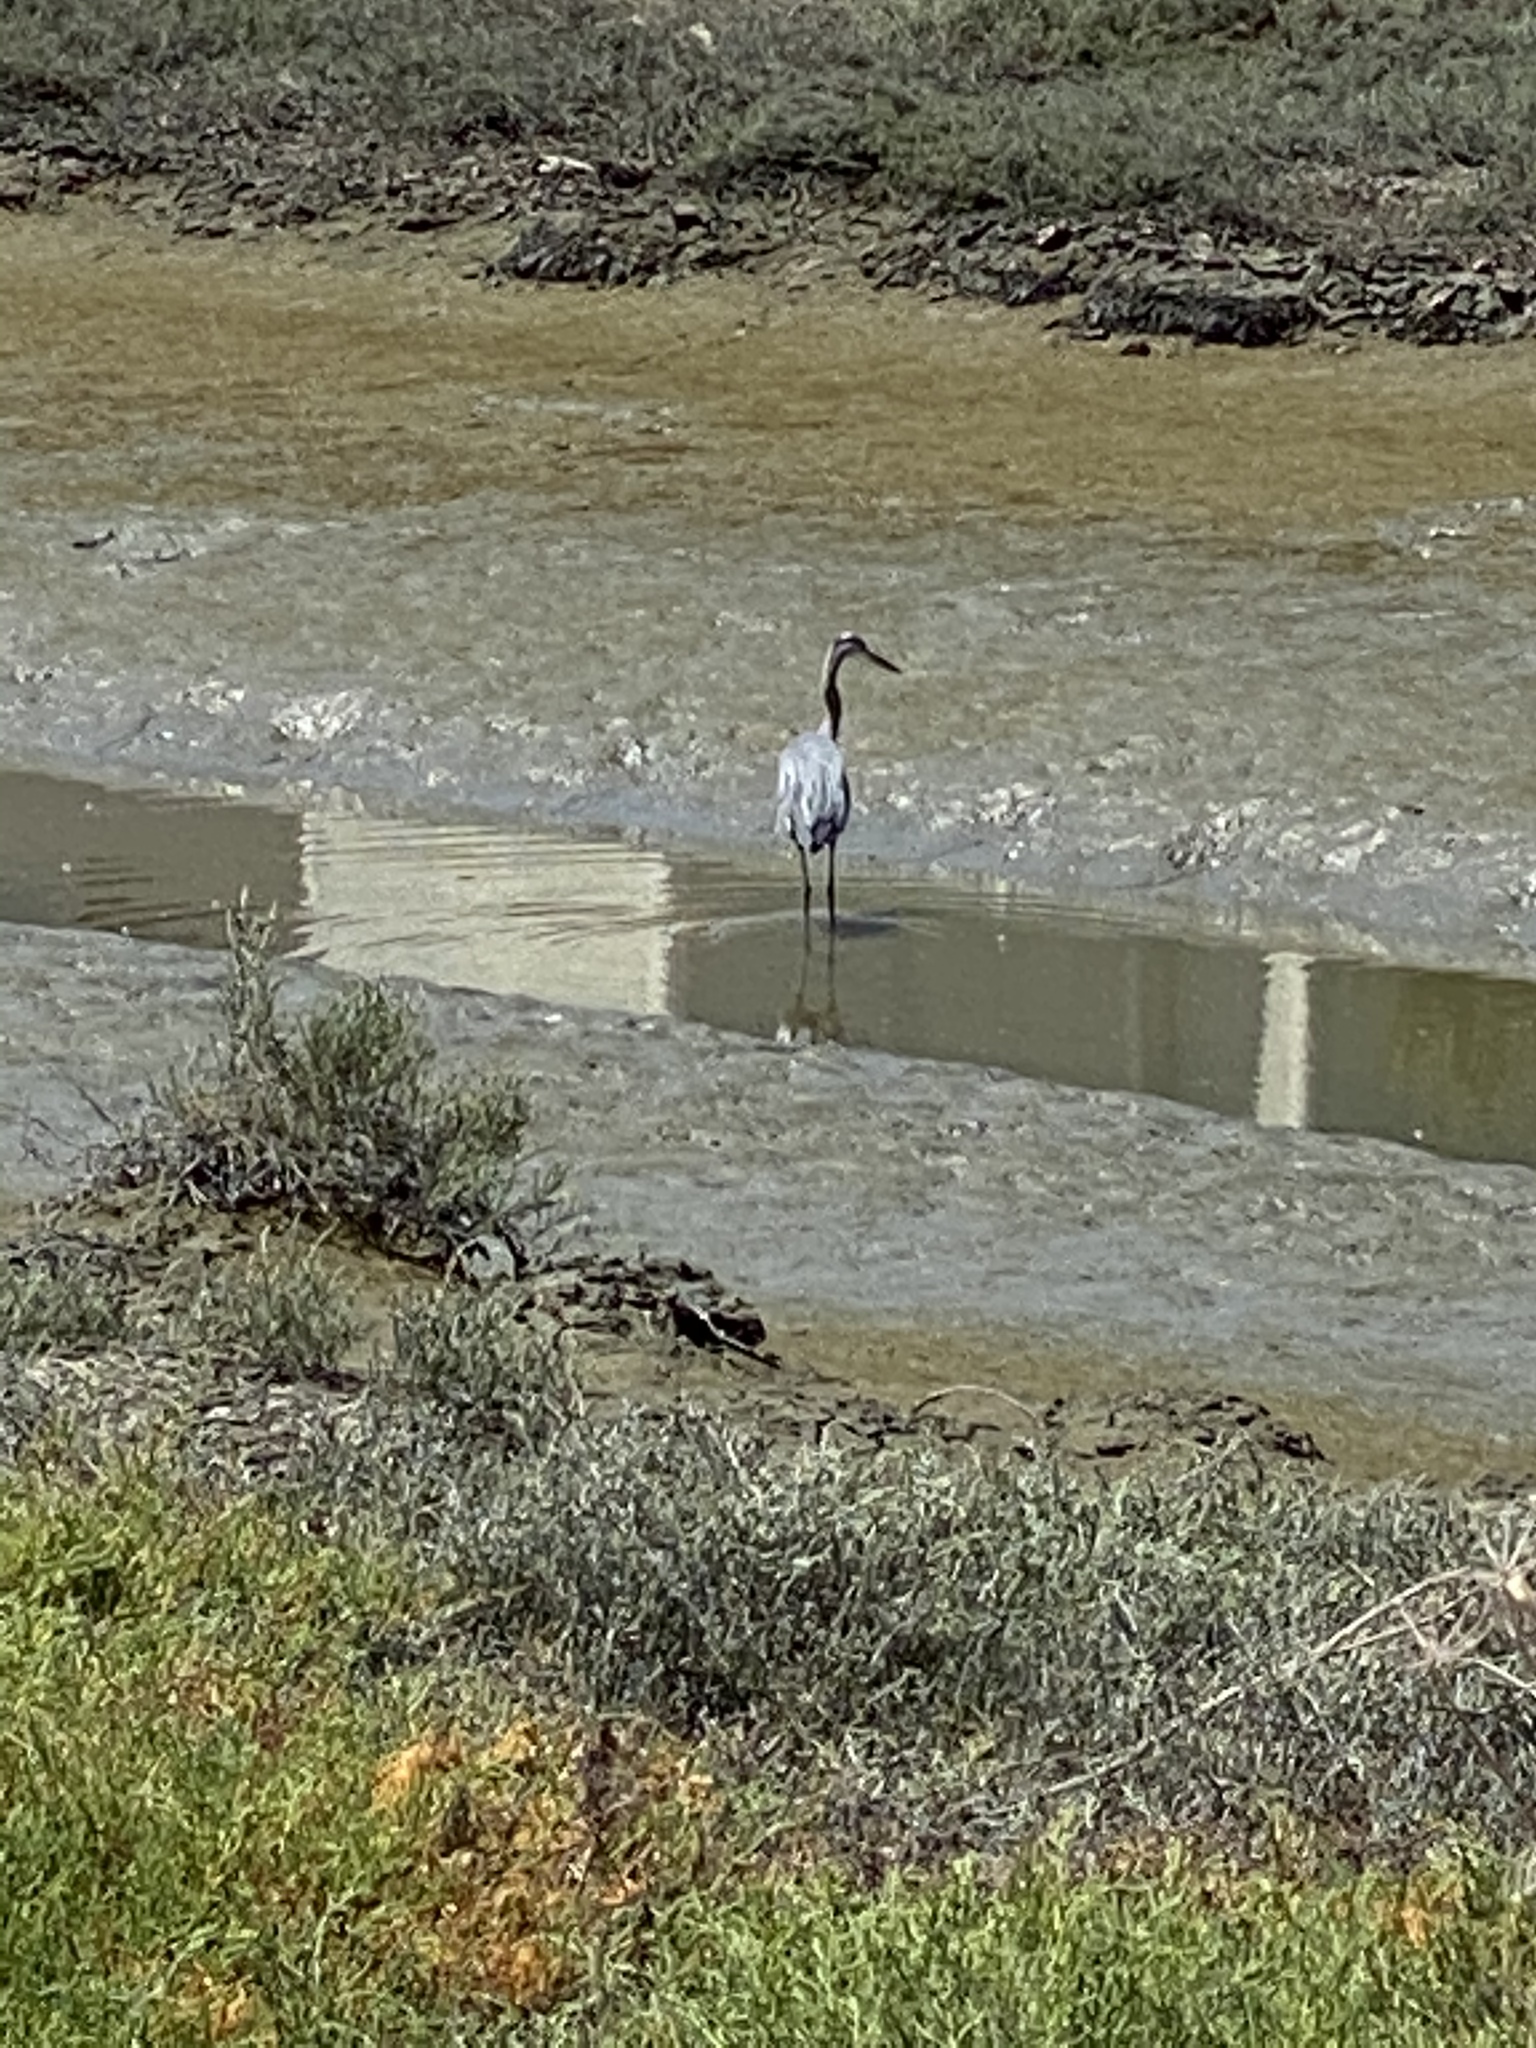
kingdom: Animalia
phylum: Chordata
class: Aves
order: Pelecaniformes
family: Ardeidae
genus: Ardea
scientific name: Ardea herodias
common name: Great blue heron
